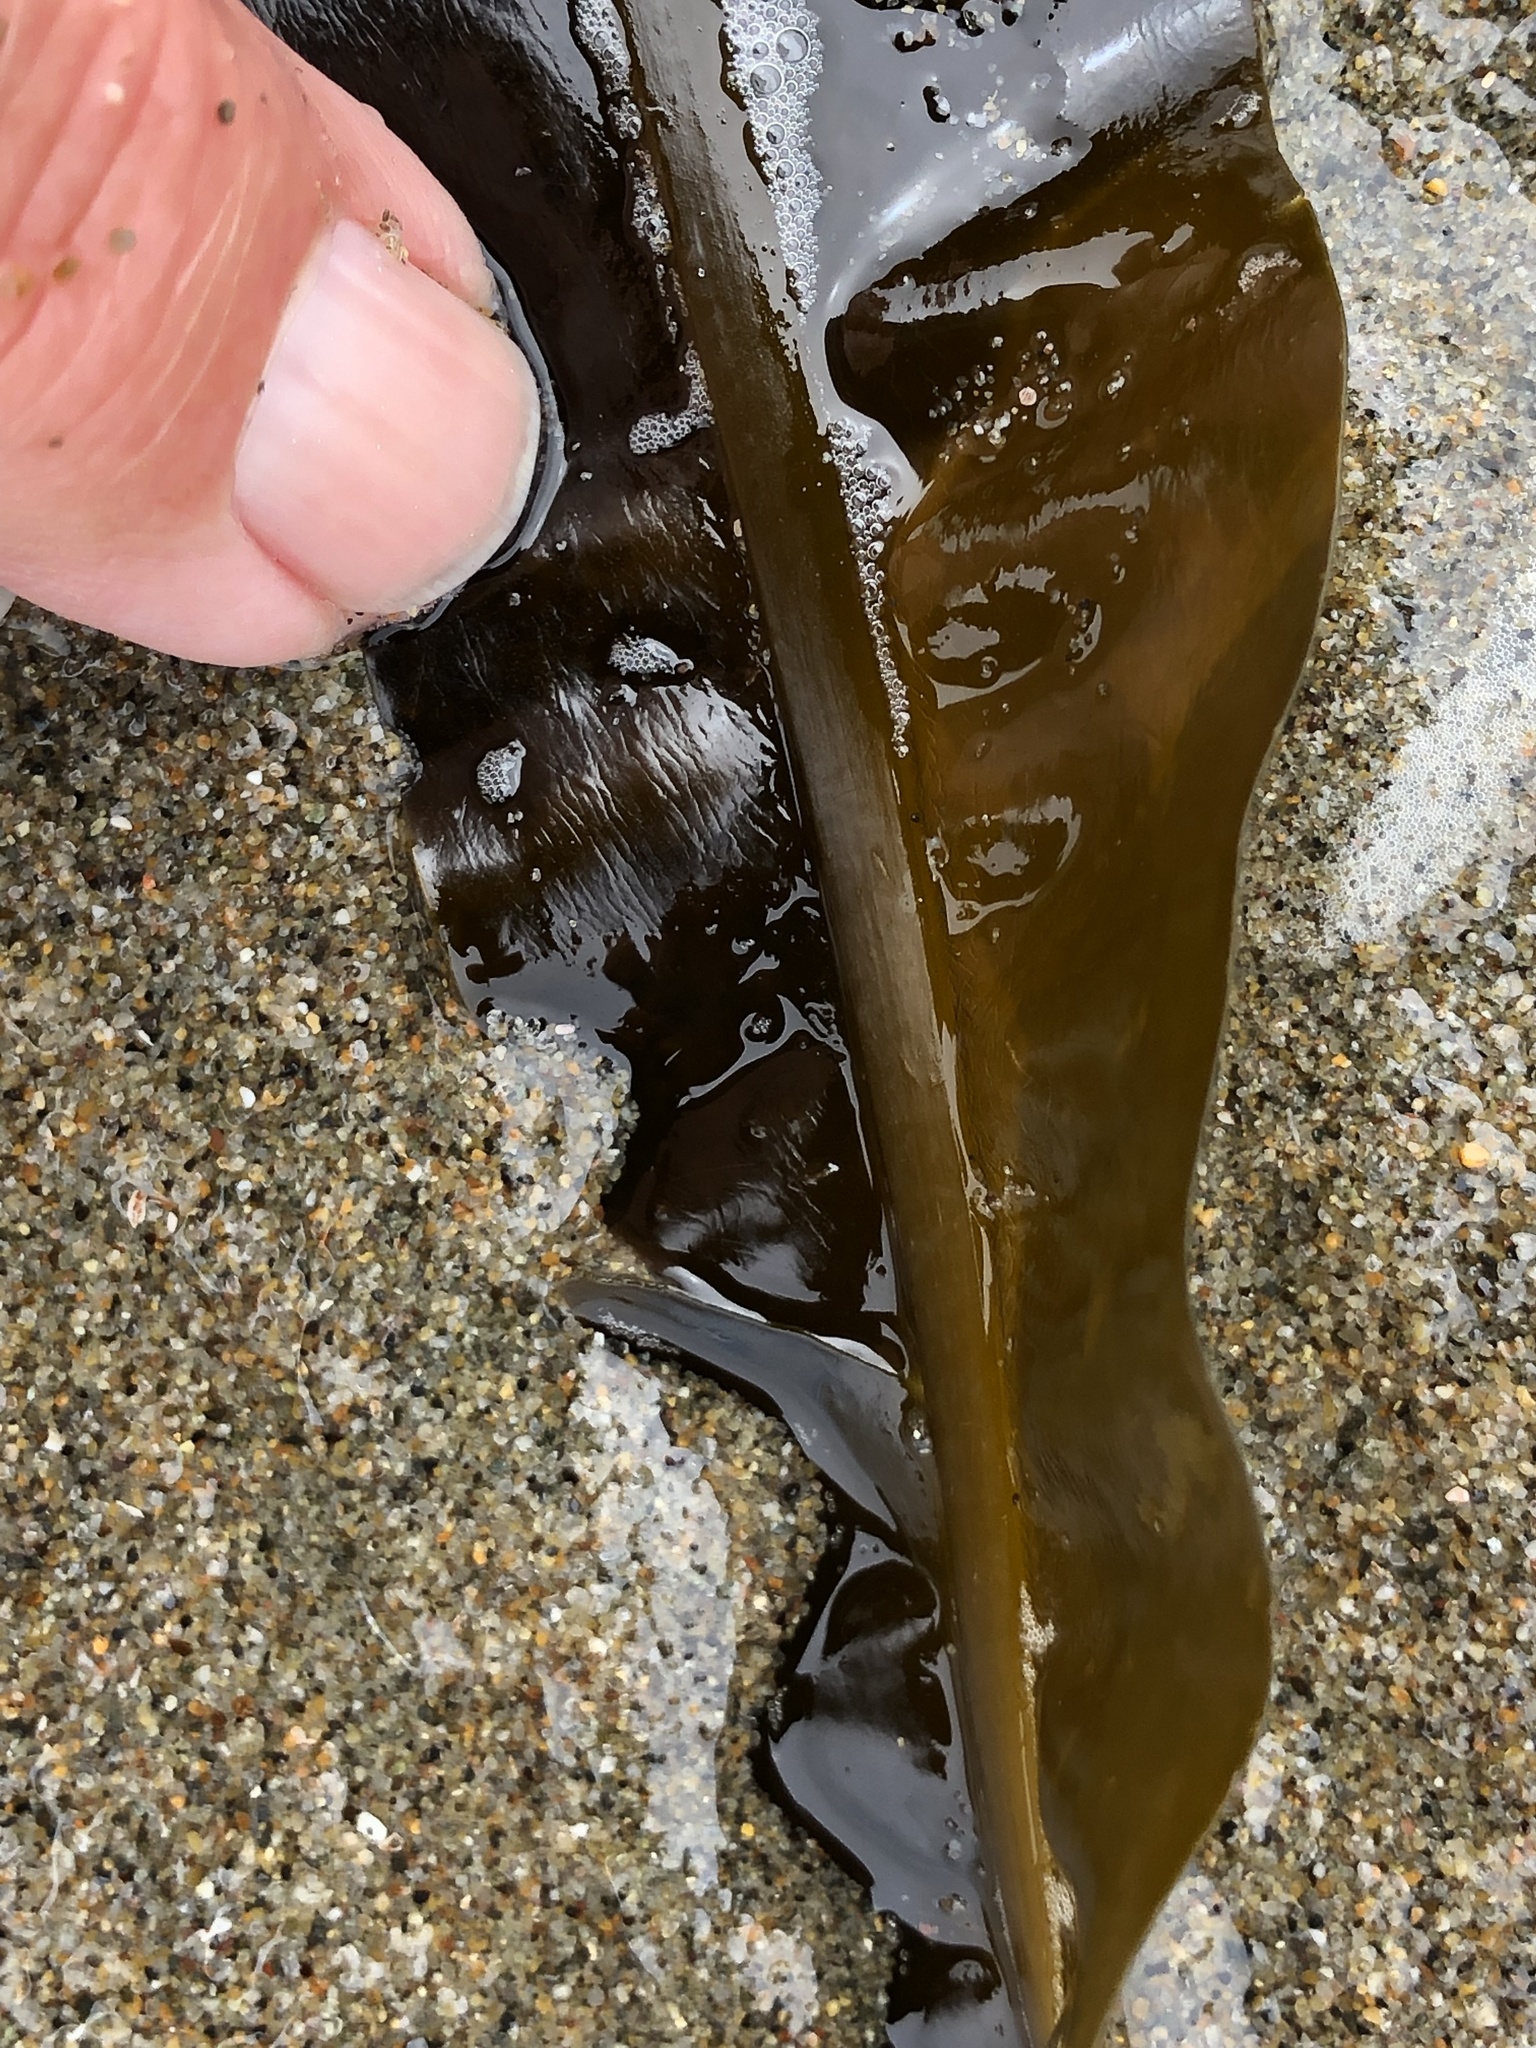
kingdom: Chromista
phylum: Ochrophyta
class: Phaeophyceae
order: Laminariales
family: Alariaceae
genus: Alaria
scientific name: Alaria marginata
